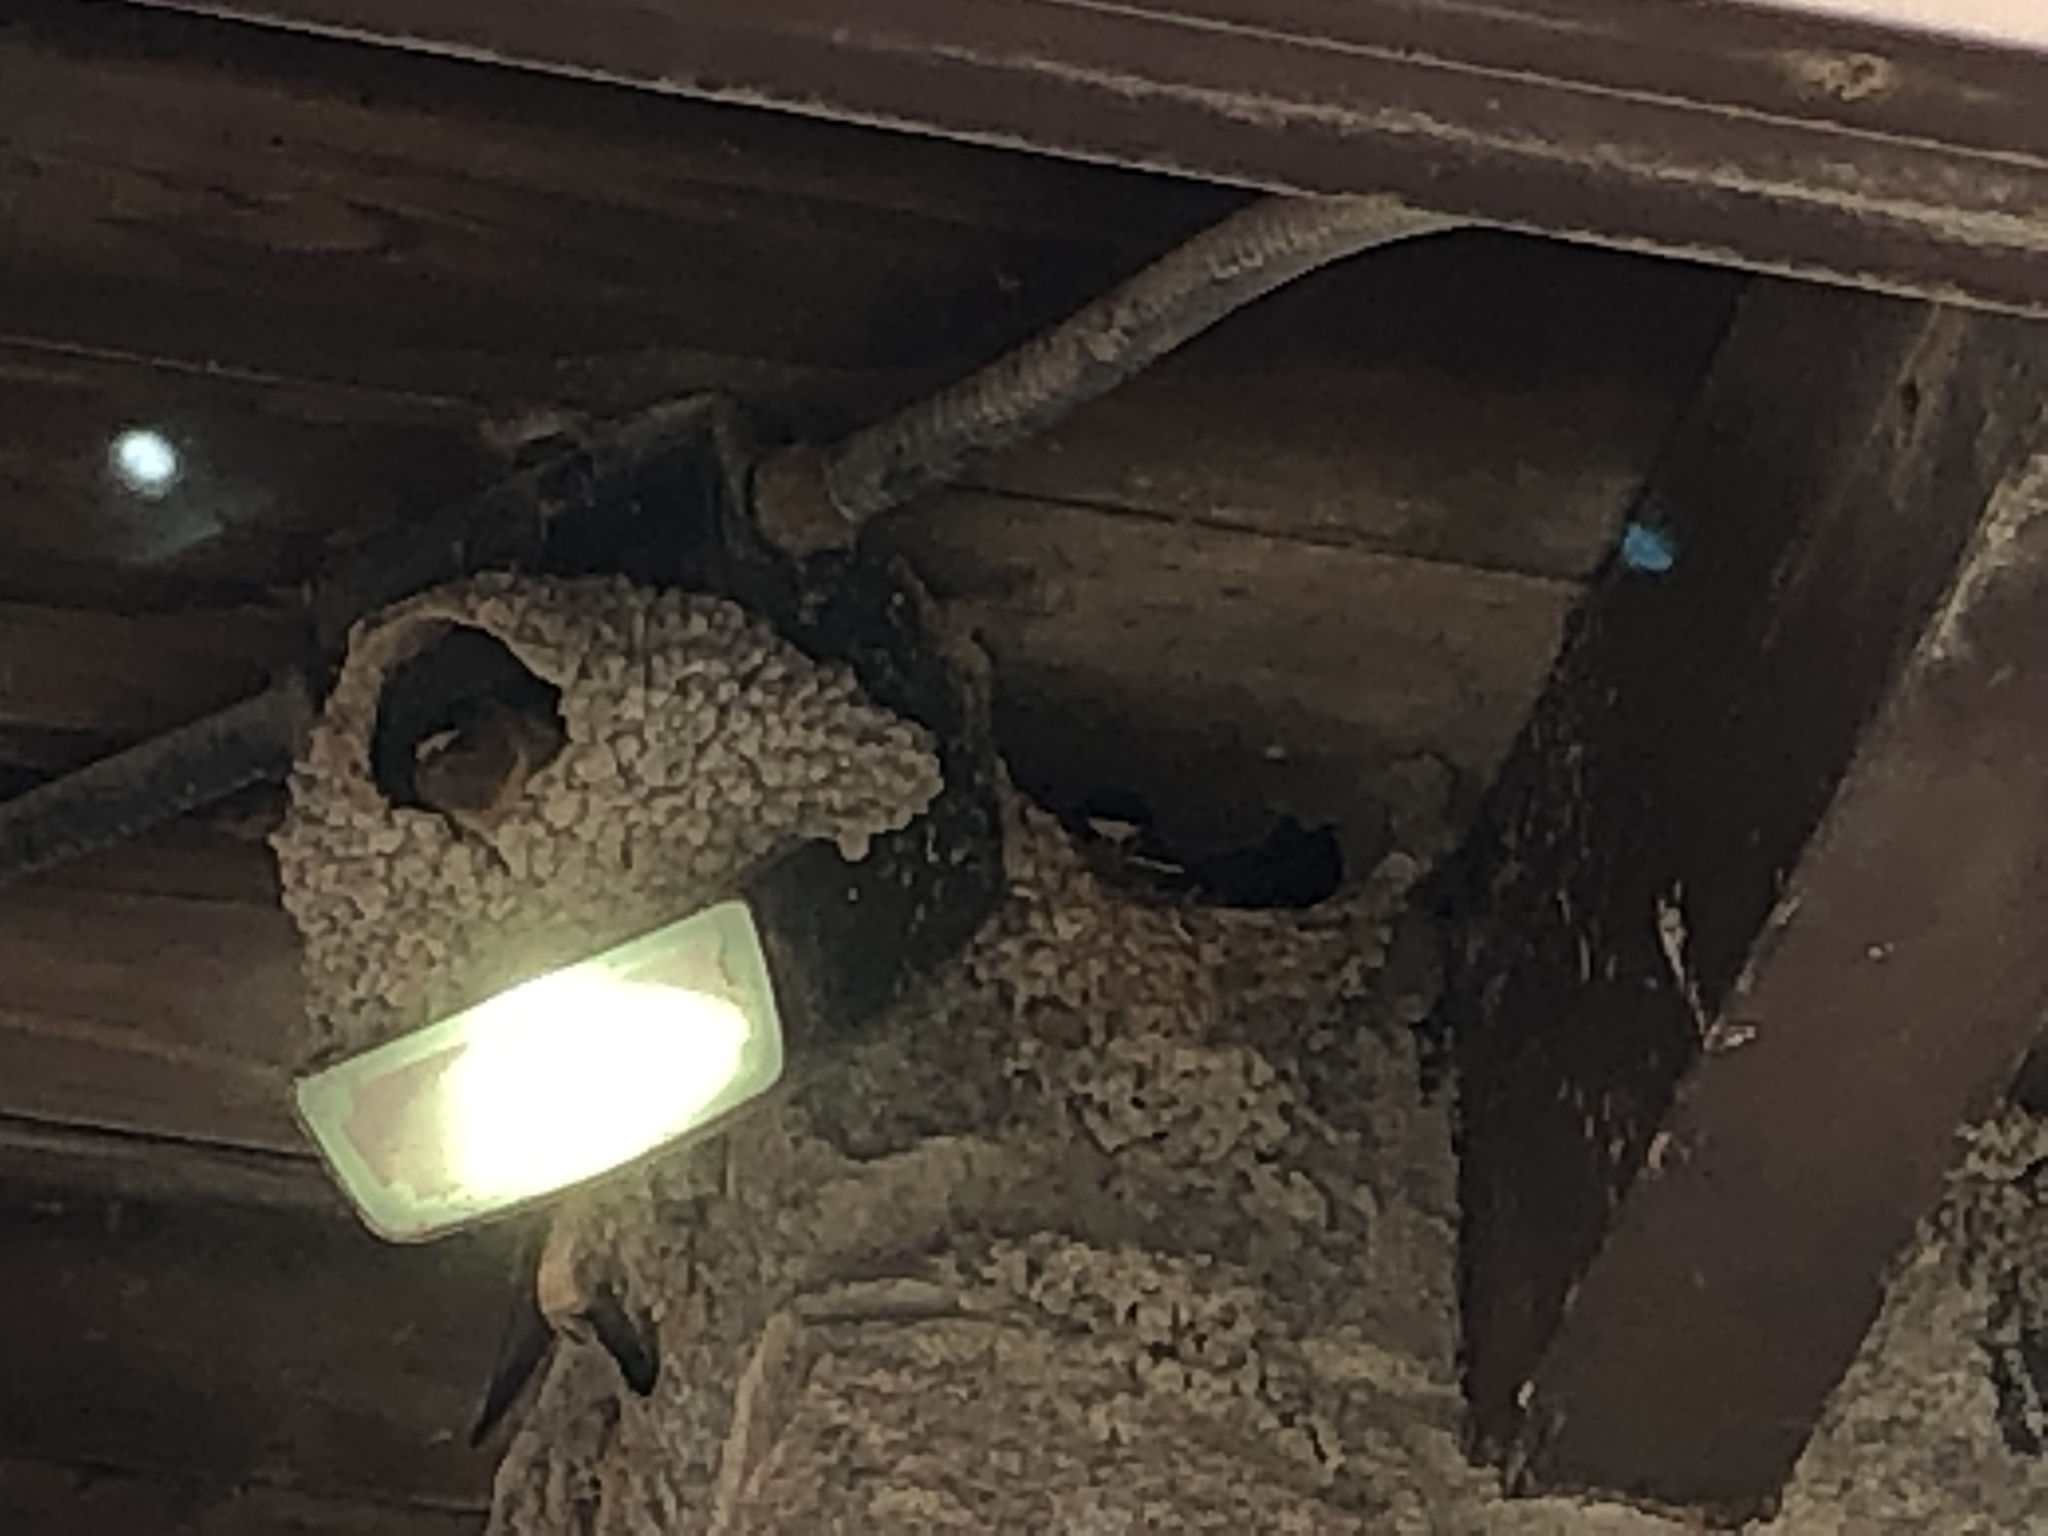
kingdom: Animalia
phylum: Chordata
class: Aves
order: Passeriformes
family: Hirundinidae
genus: Petrochelidon
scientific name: Petrochelidon pyrrhonota
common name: American cliff swallow
